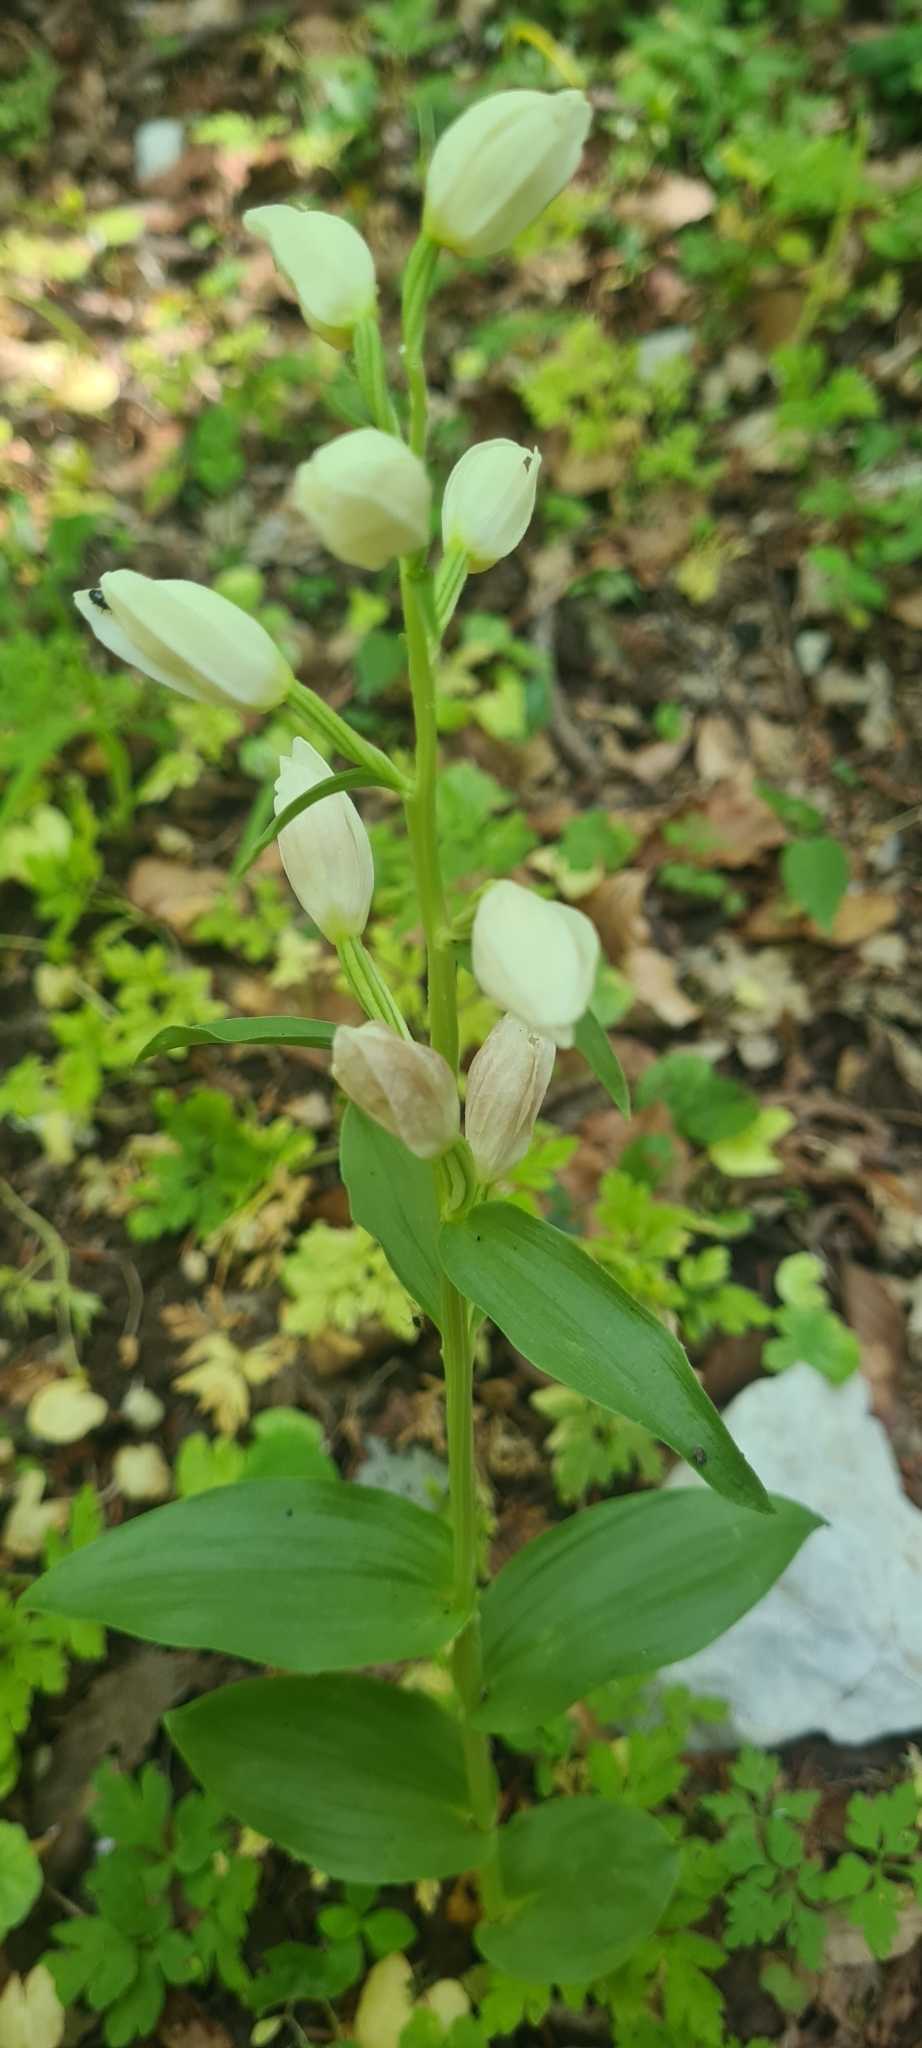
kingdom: Plantae
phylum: Tracheophyta
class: Liliopsida
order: Asparagales
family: Orchidaceae
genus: Cephalanthera
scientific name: Cephalanthera damasonium
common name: White helleborine
